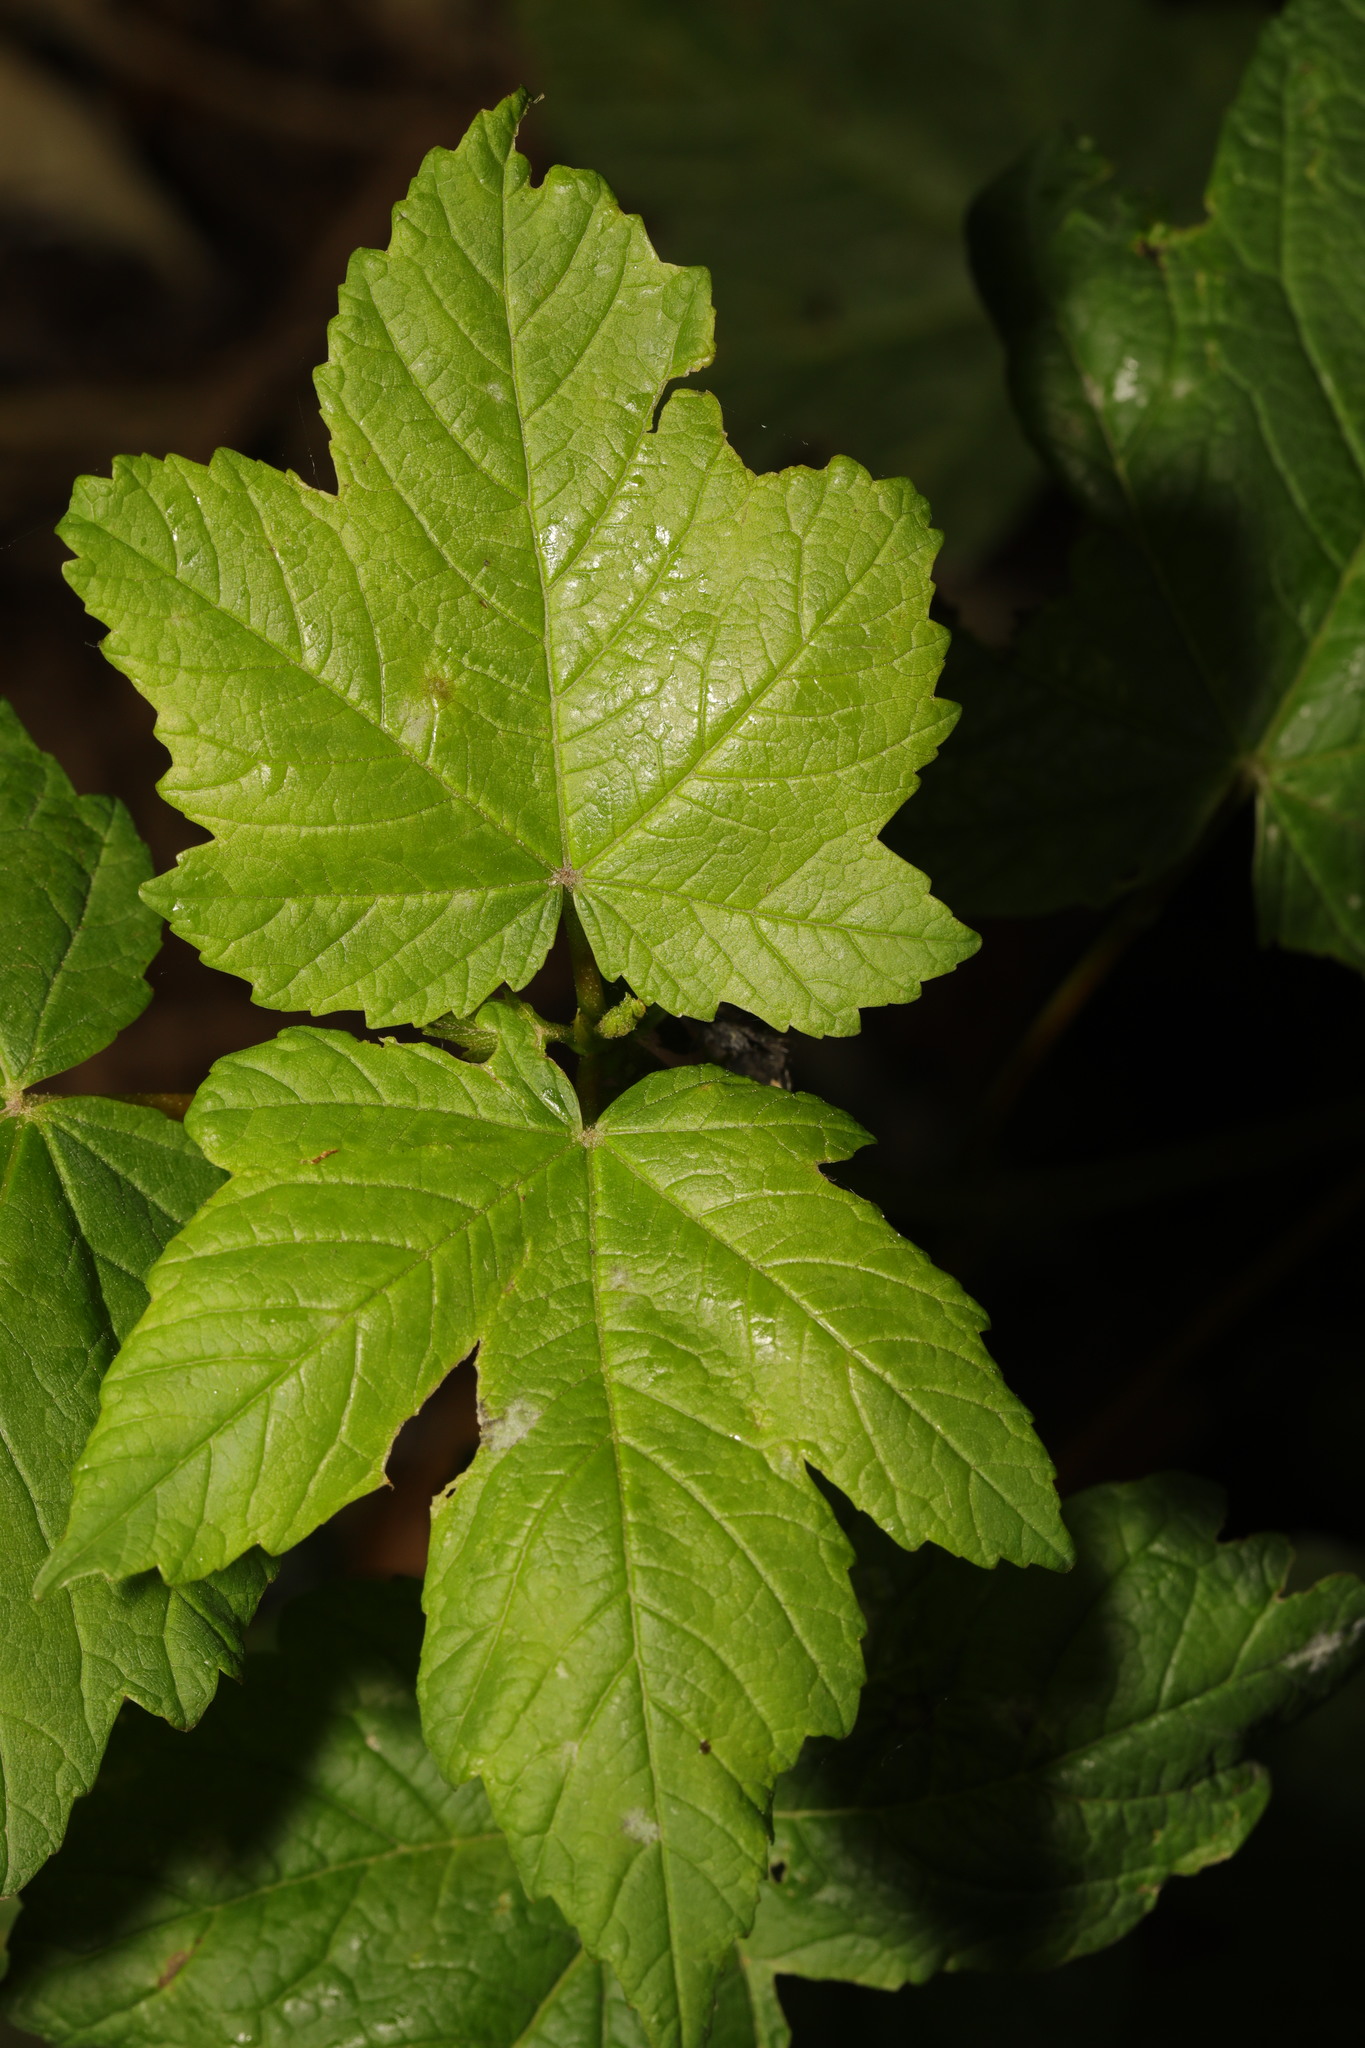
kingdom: Plantae
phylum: Tracheophyta
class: Magnoliopsida
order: Sapindales
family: Sapindaceae
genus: Acer
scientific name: Acer pseudoplatanus
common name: Sycamore
